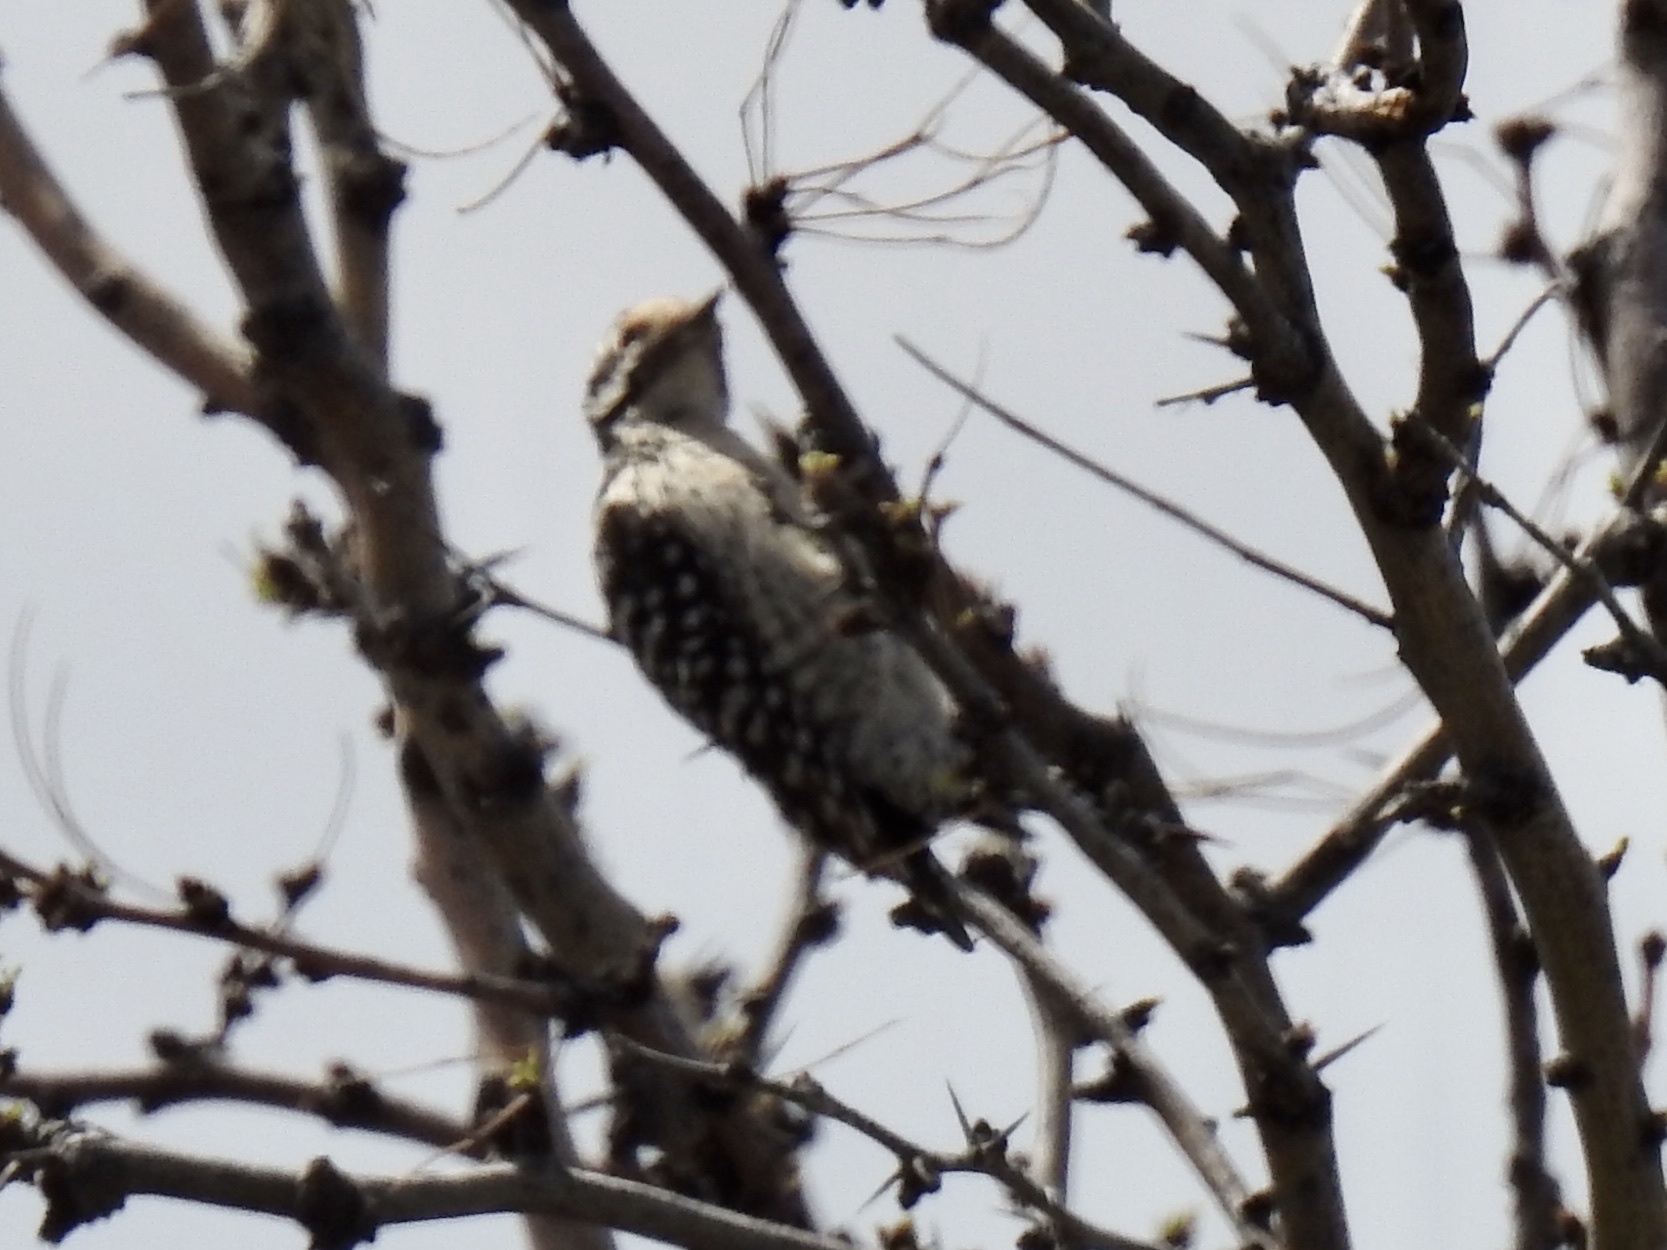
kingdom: Animalia
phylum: Chordata
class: Aves
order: Piciformes
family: Picidae
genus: Dryobates
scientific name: Dryobates scalaris
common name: Ladder-backed woodpecker
